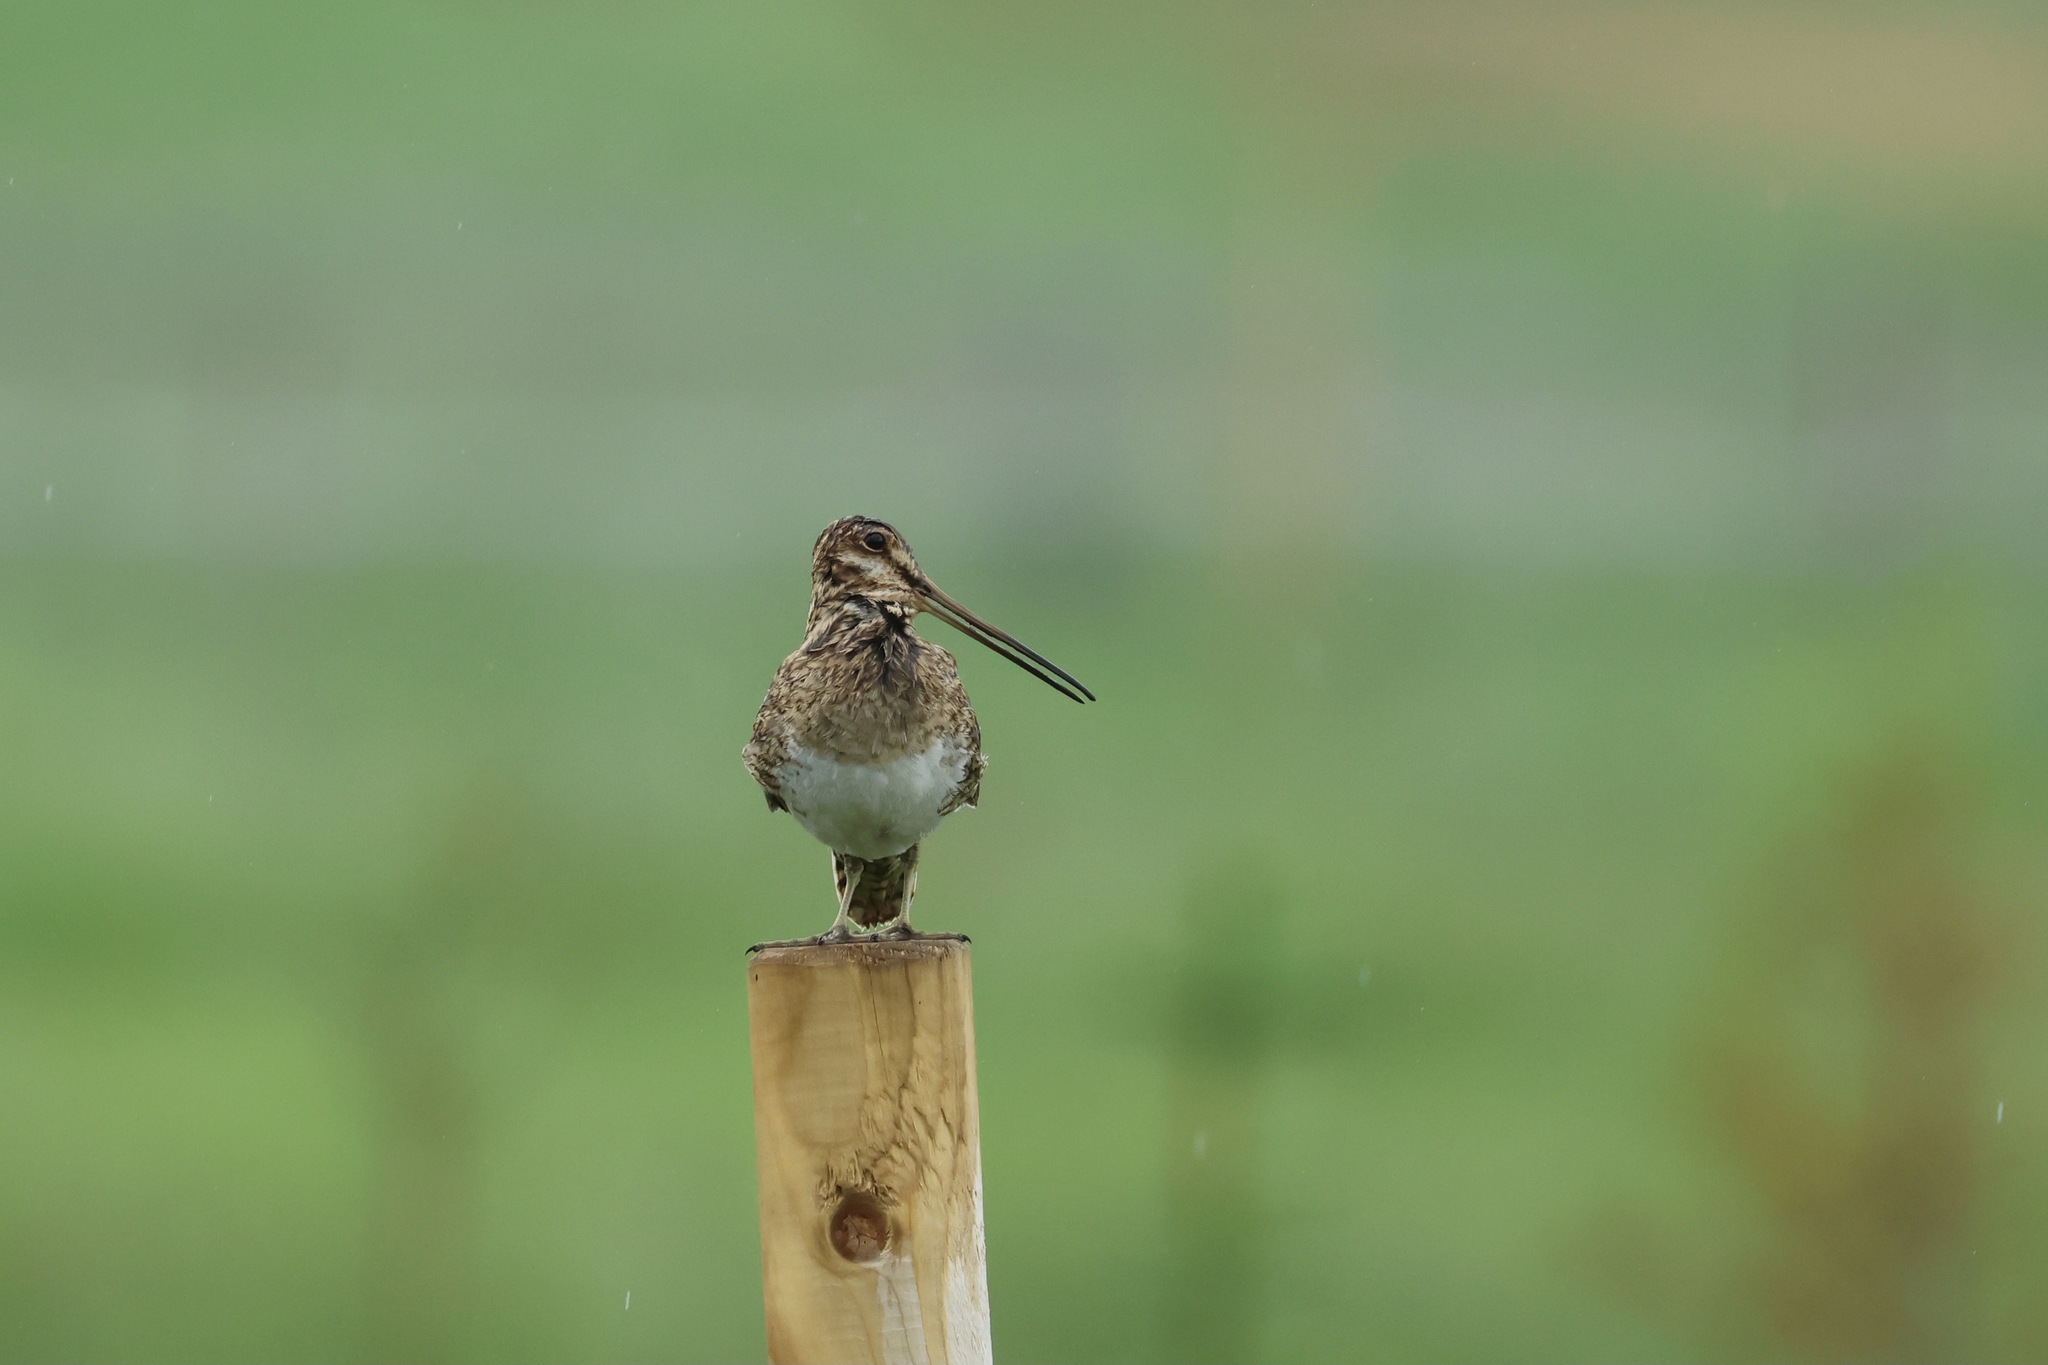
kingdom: Animalia
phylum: Chordata
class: Aves
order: Charadriiformes
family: Scolopacidae
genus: Gallinago
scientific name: Gallinago gallinago
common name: Common snipe
